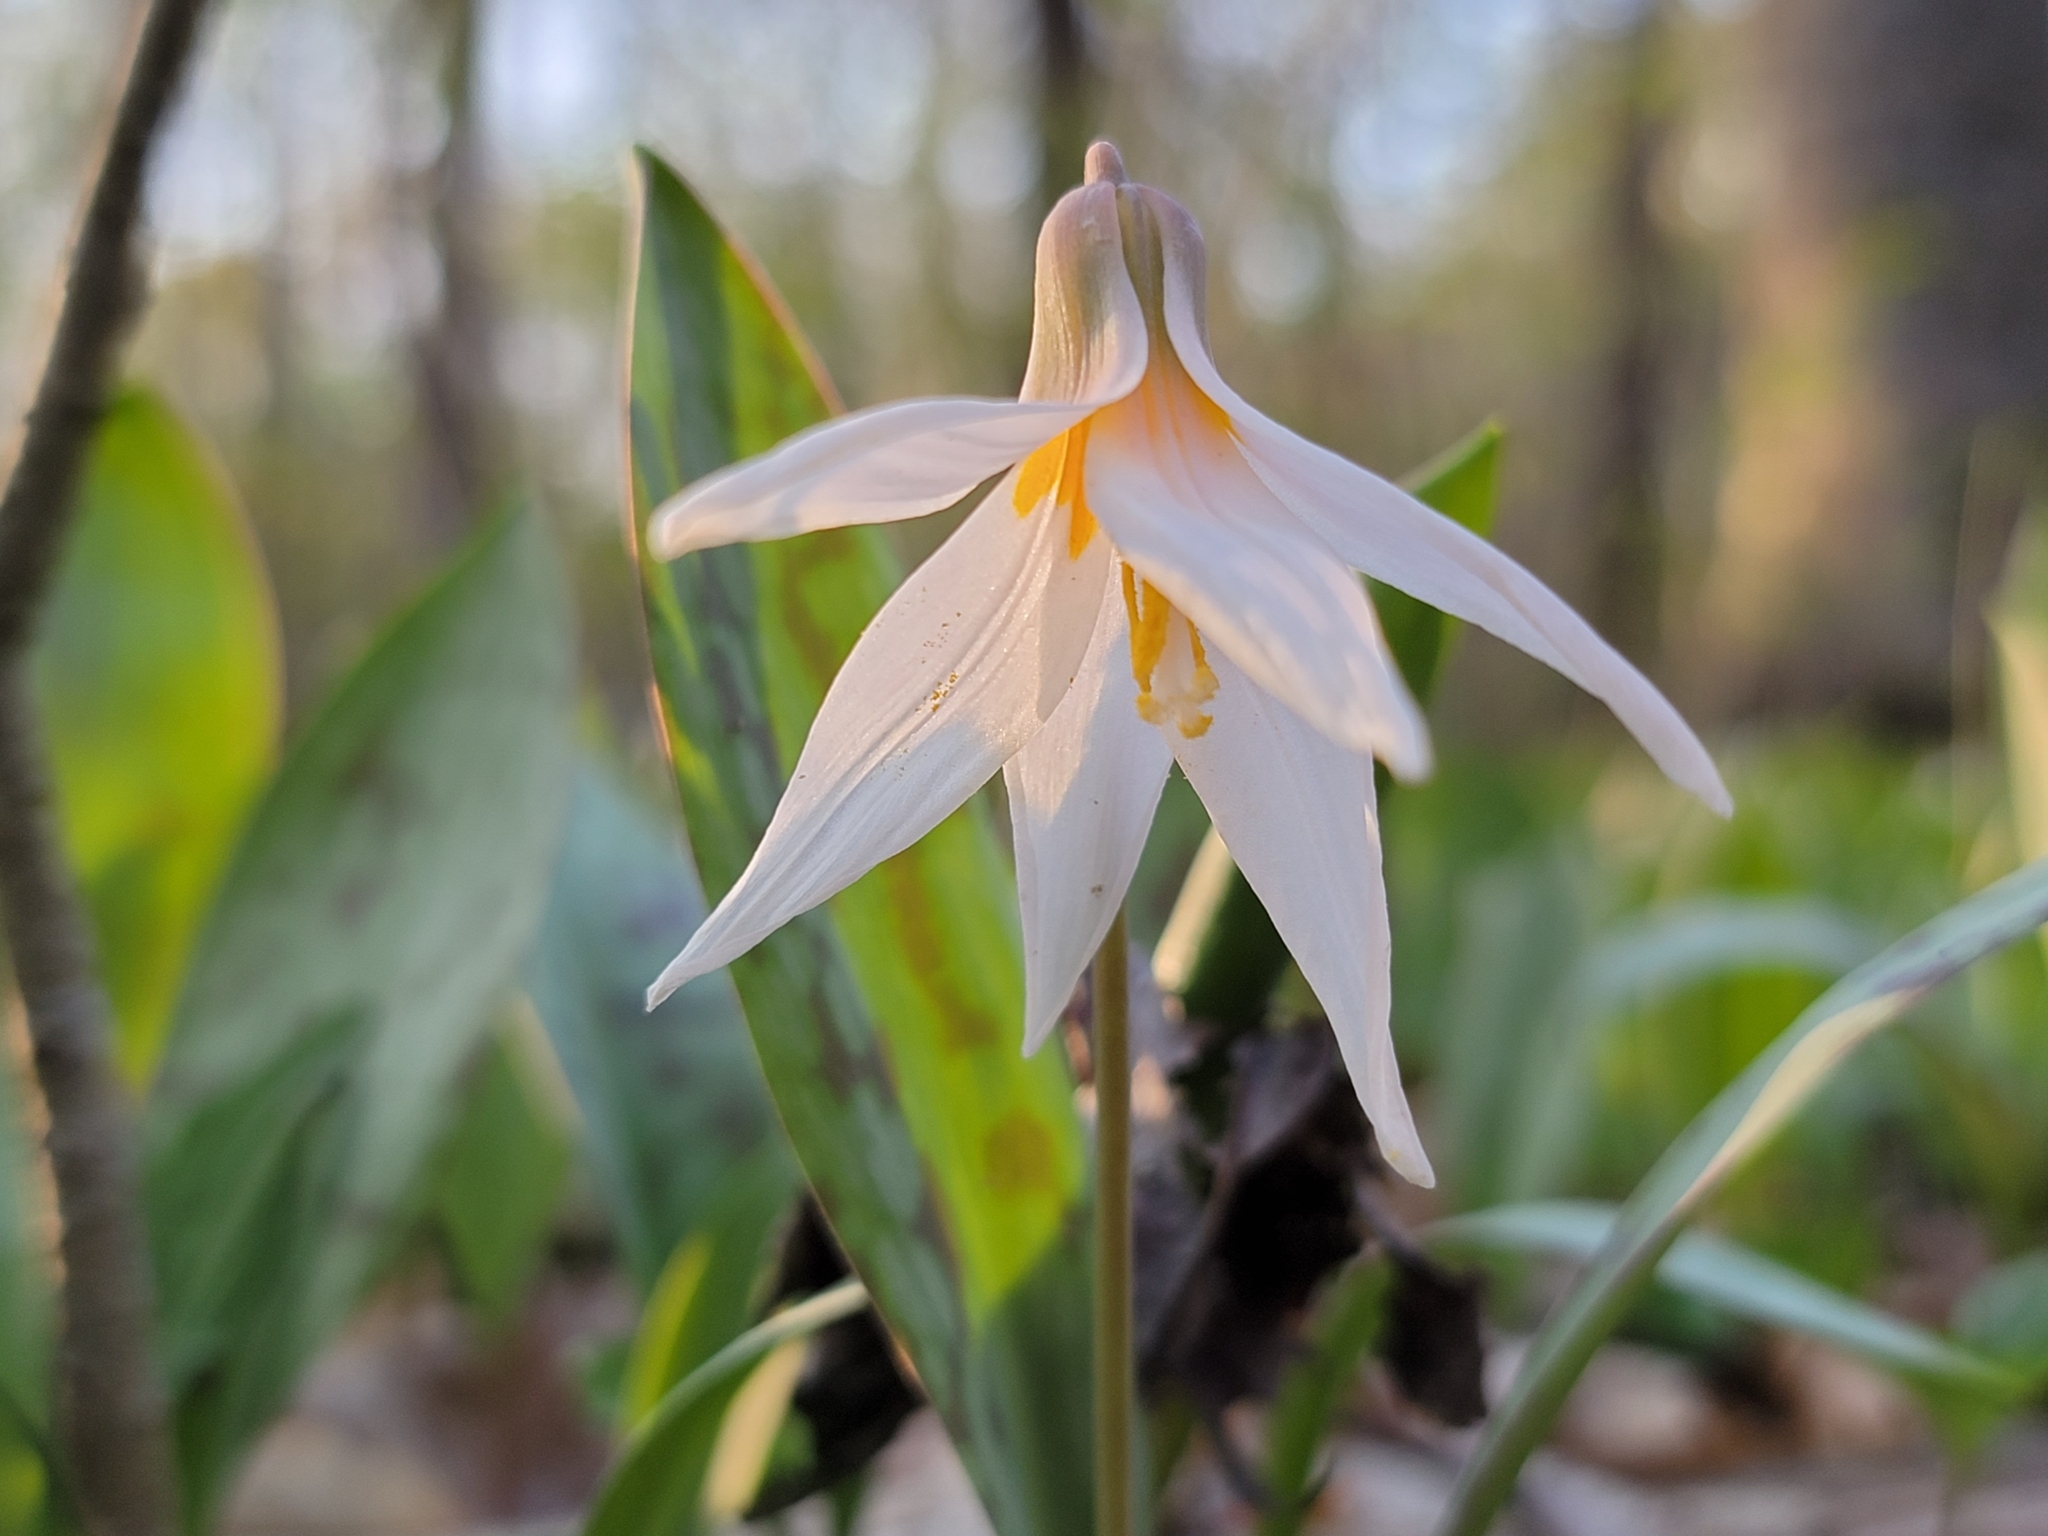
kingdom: Plantae
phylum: Tracheophyta
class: Liliopsida
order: Liliales
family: Liliaceae
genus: Erythronium
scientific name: Erythronium albidum
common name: White trout-lily
